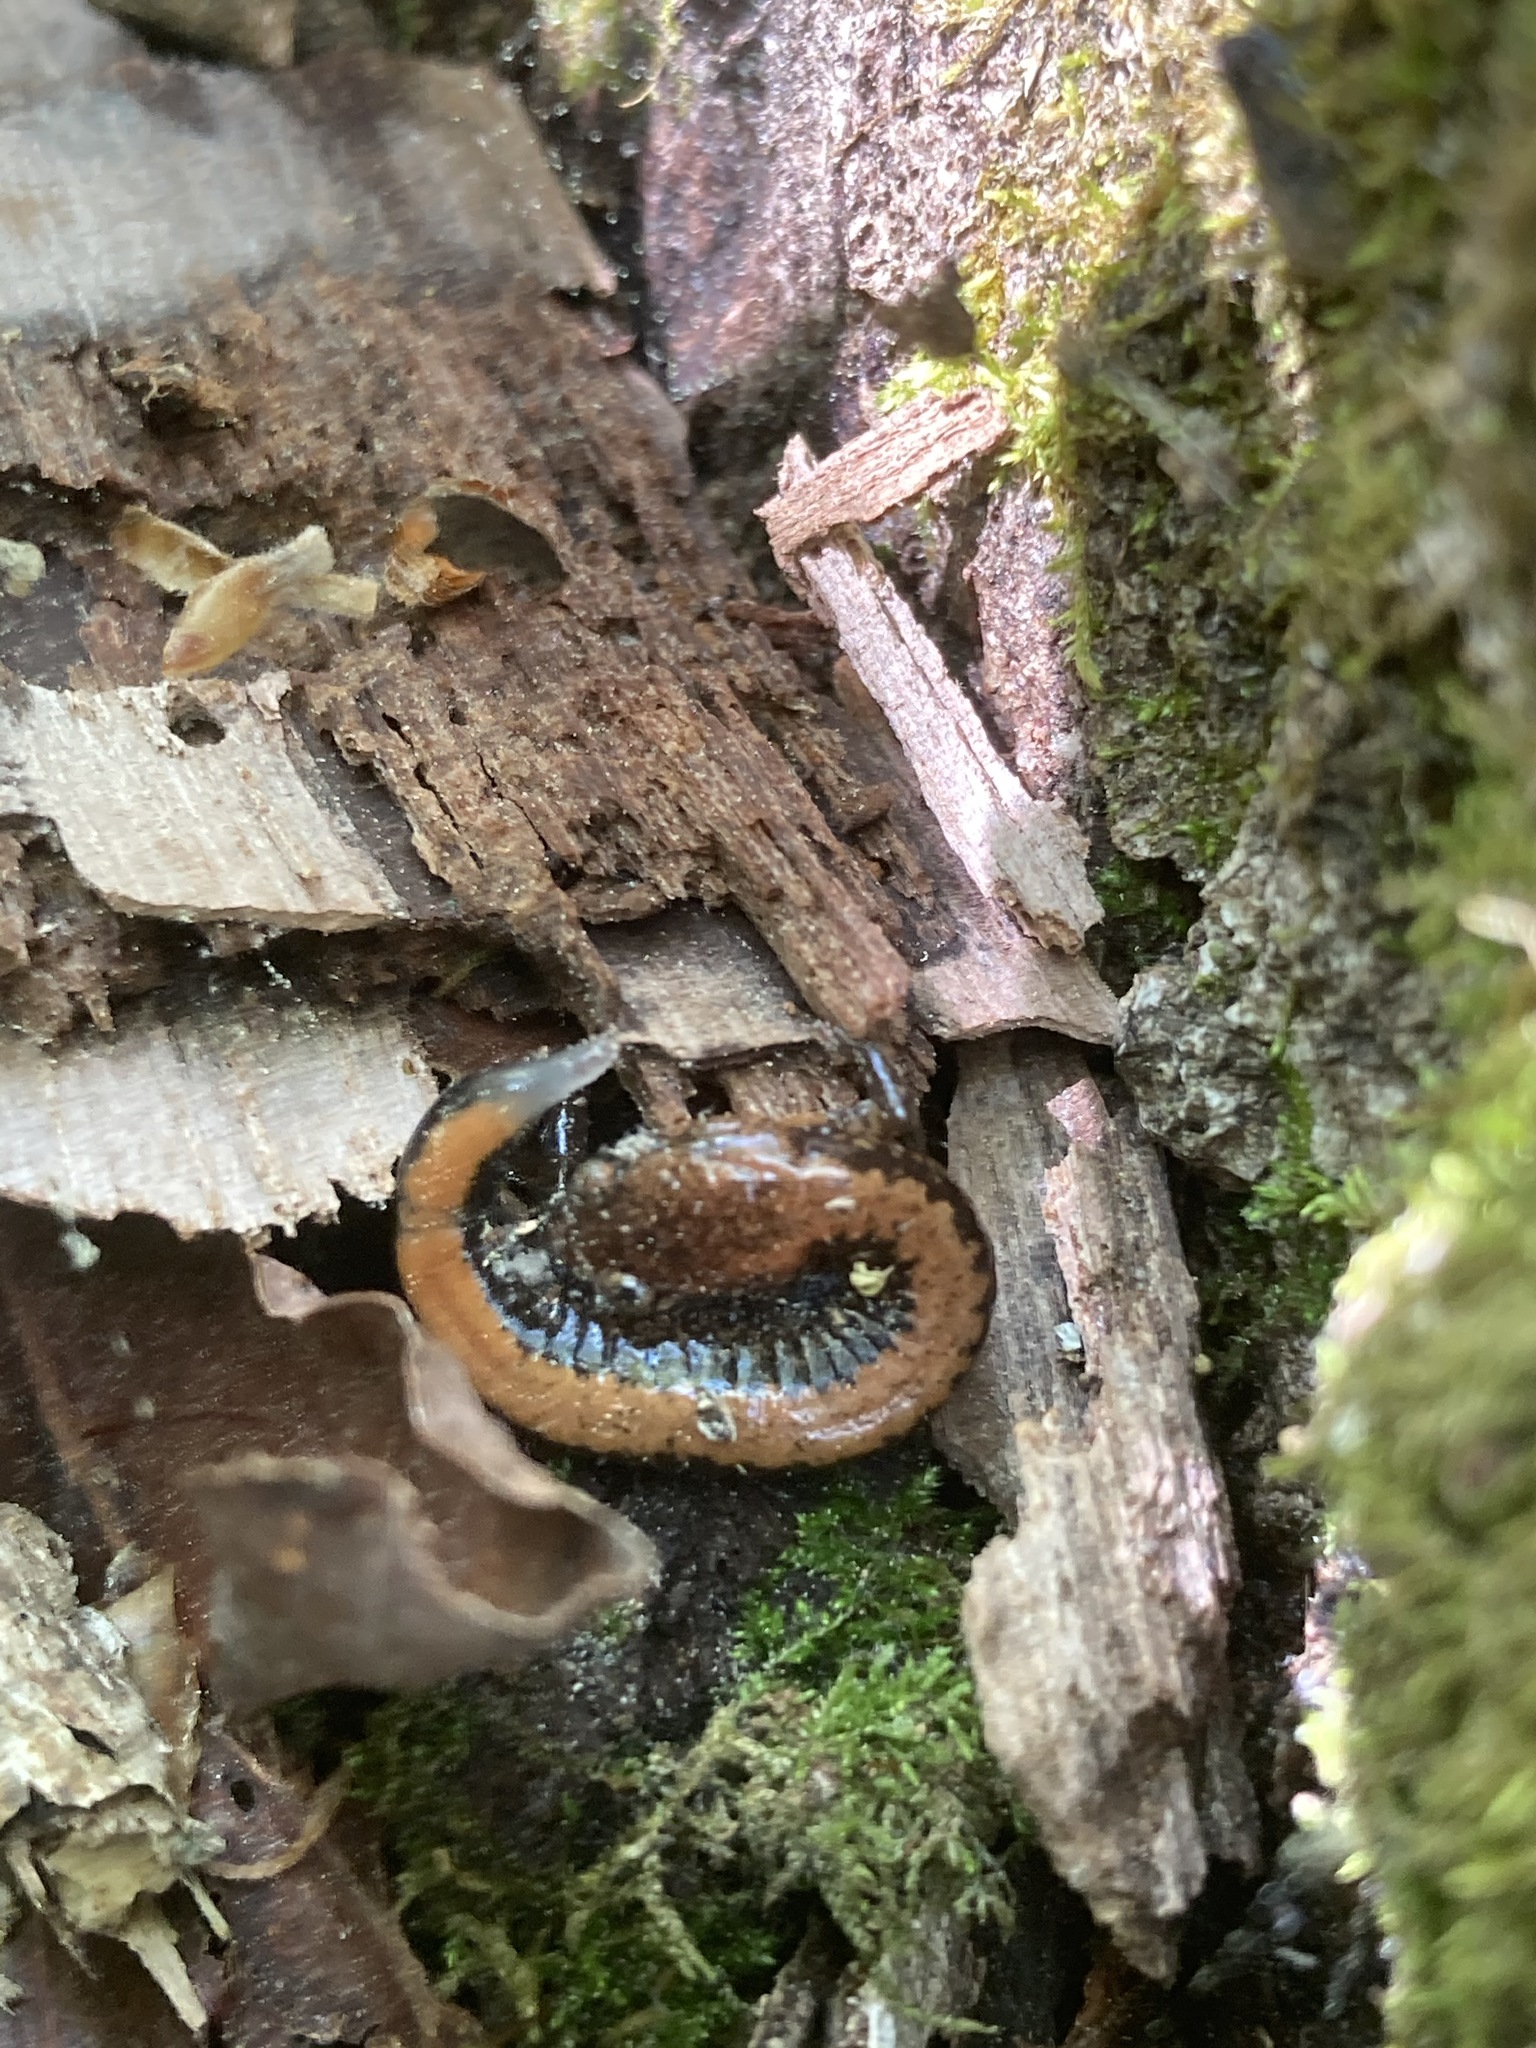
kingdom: Animalia
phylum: Chordata
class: Amphibia
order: Caudata
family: Plethodontidae
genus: Plethodon
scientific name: Plethodon serratus
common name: Southern red-backed salamander
